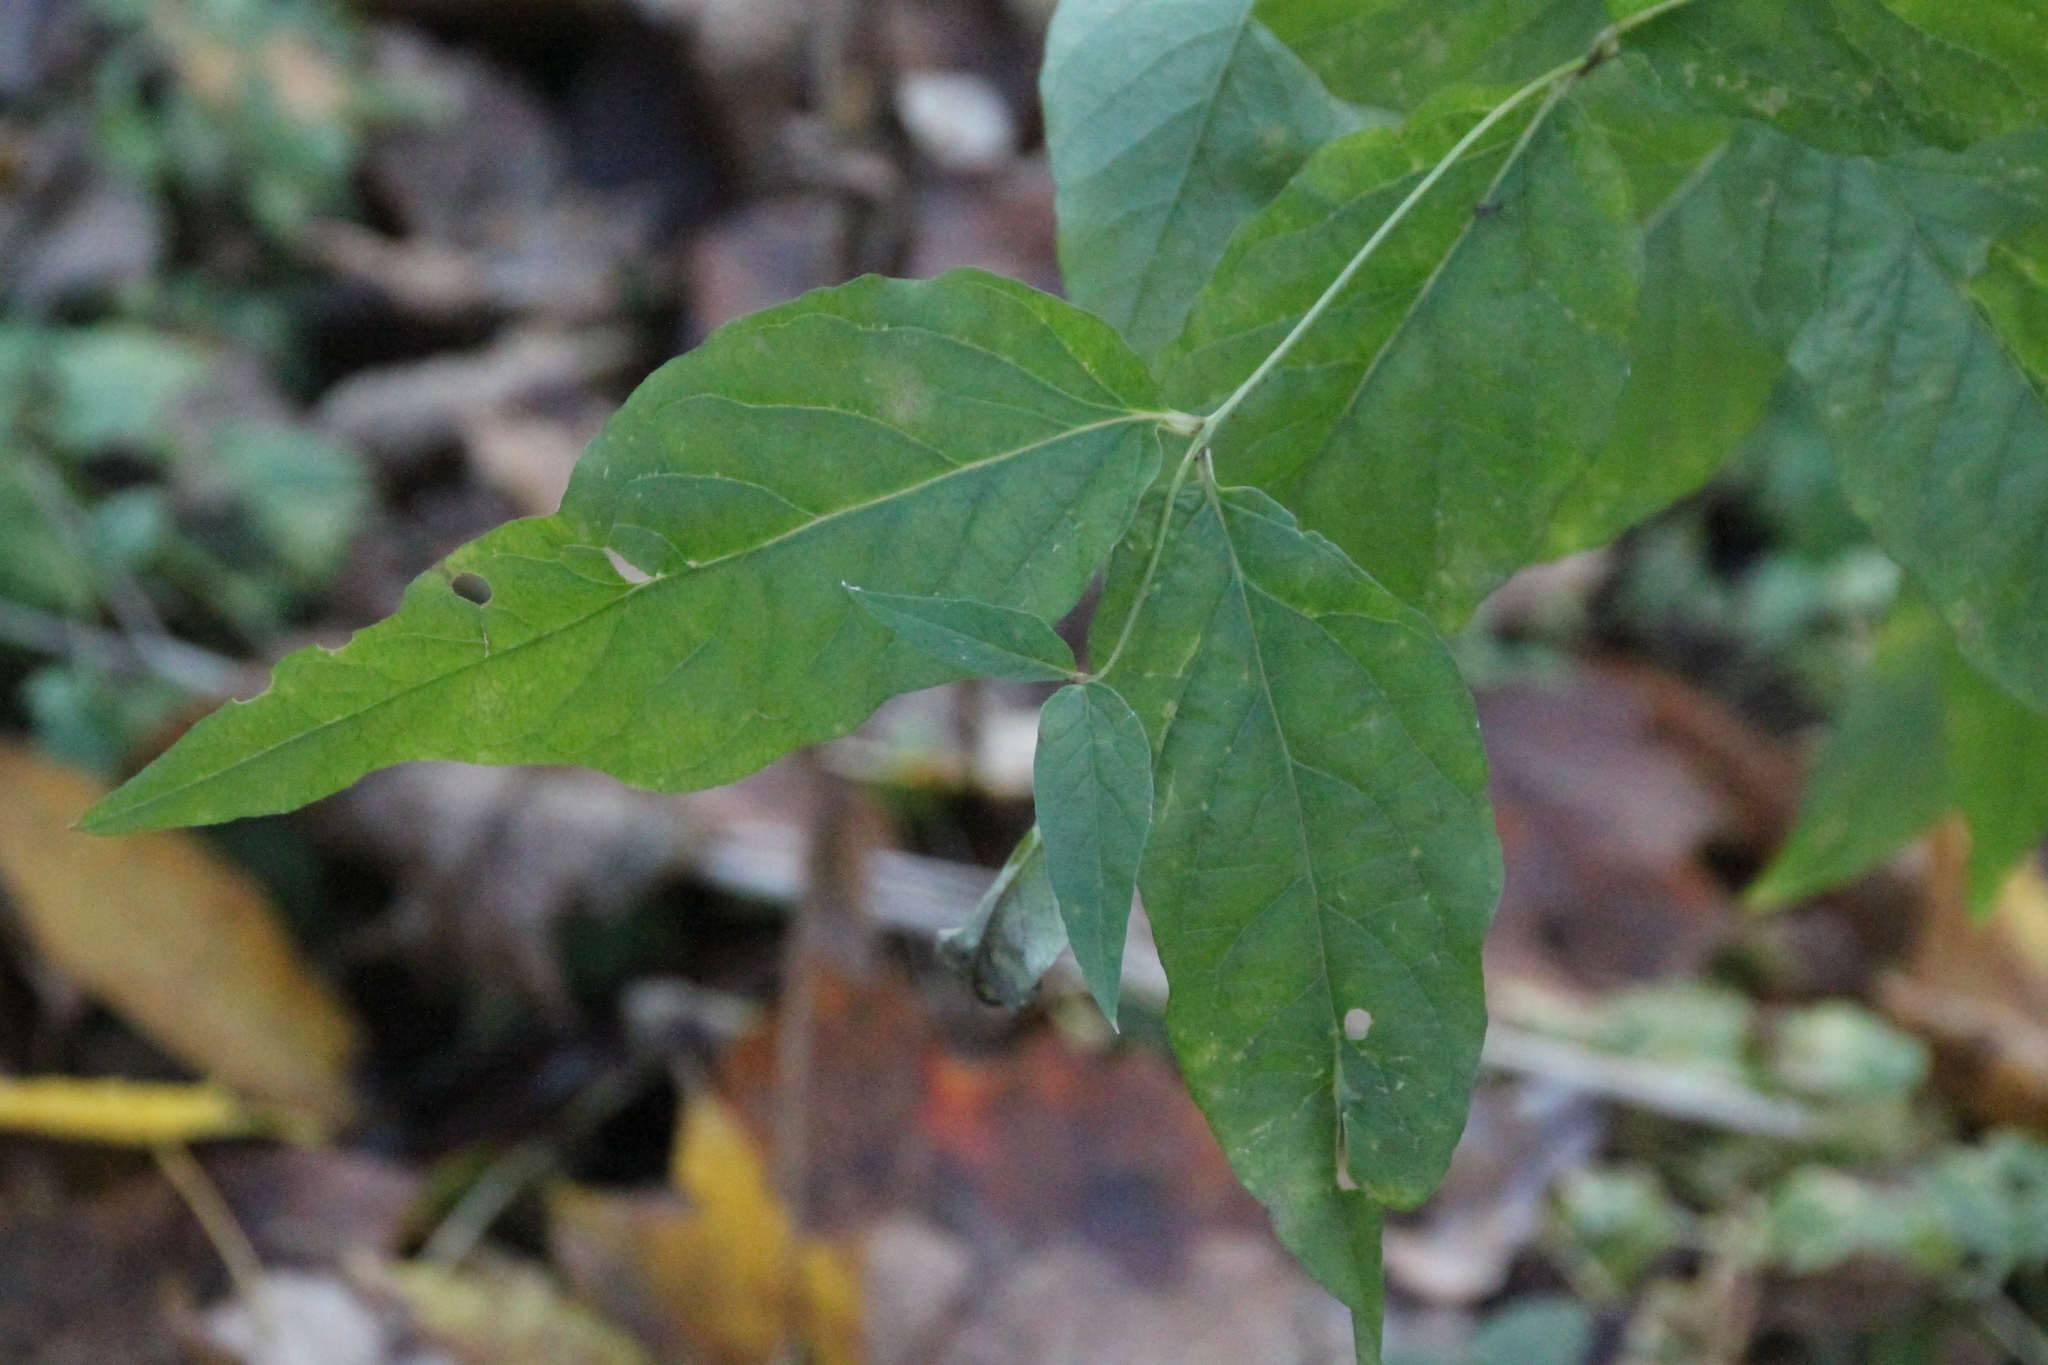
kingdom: Plantae
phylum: Tracheophyta
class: Magnoliopsida
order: Ericales
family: Primulaceae
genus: Lysimachia
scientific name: Lysimachia vulgaris
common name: Yellow loosestrife
